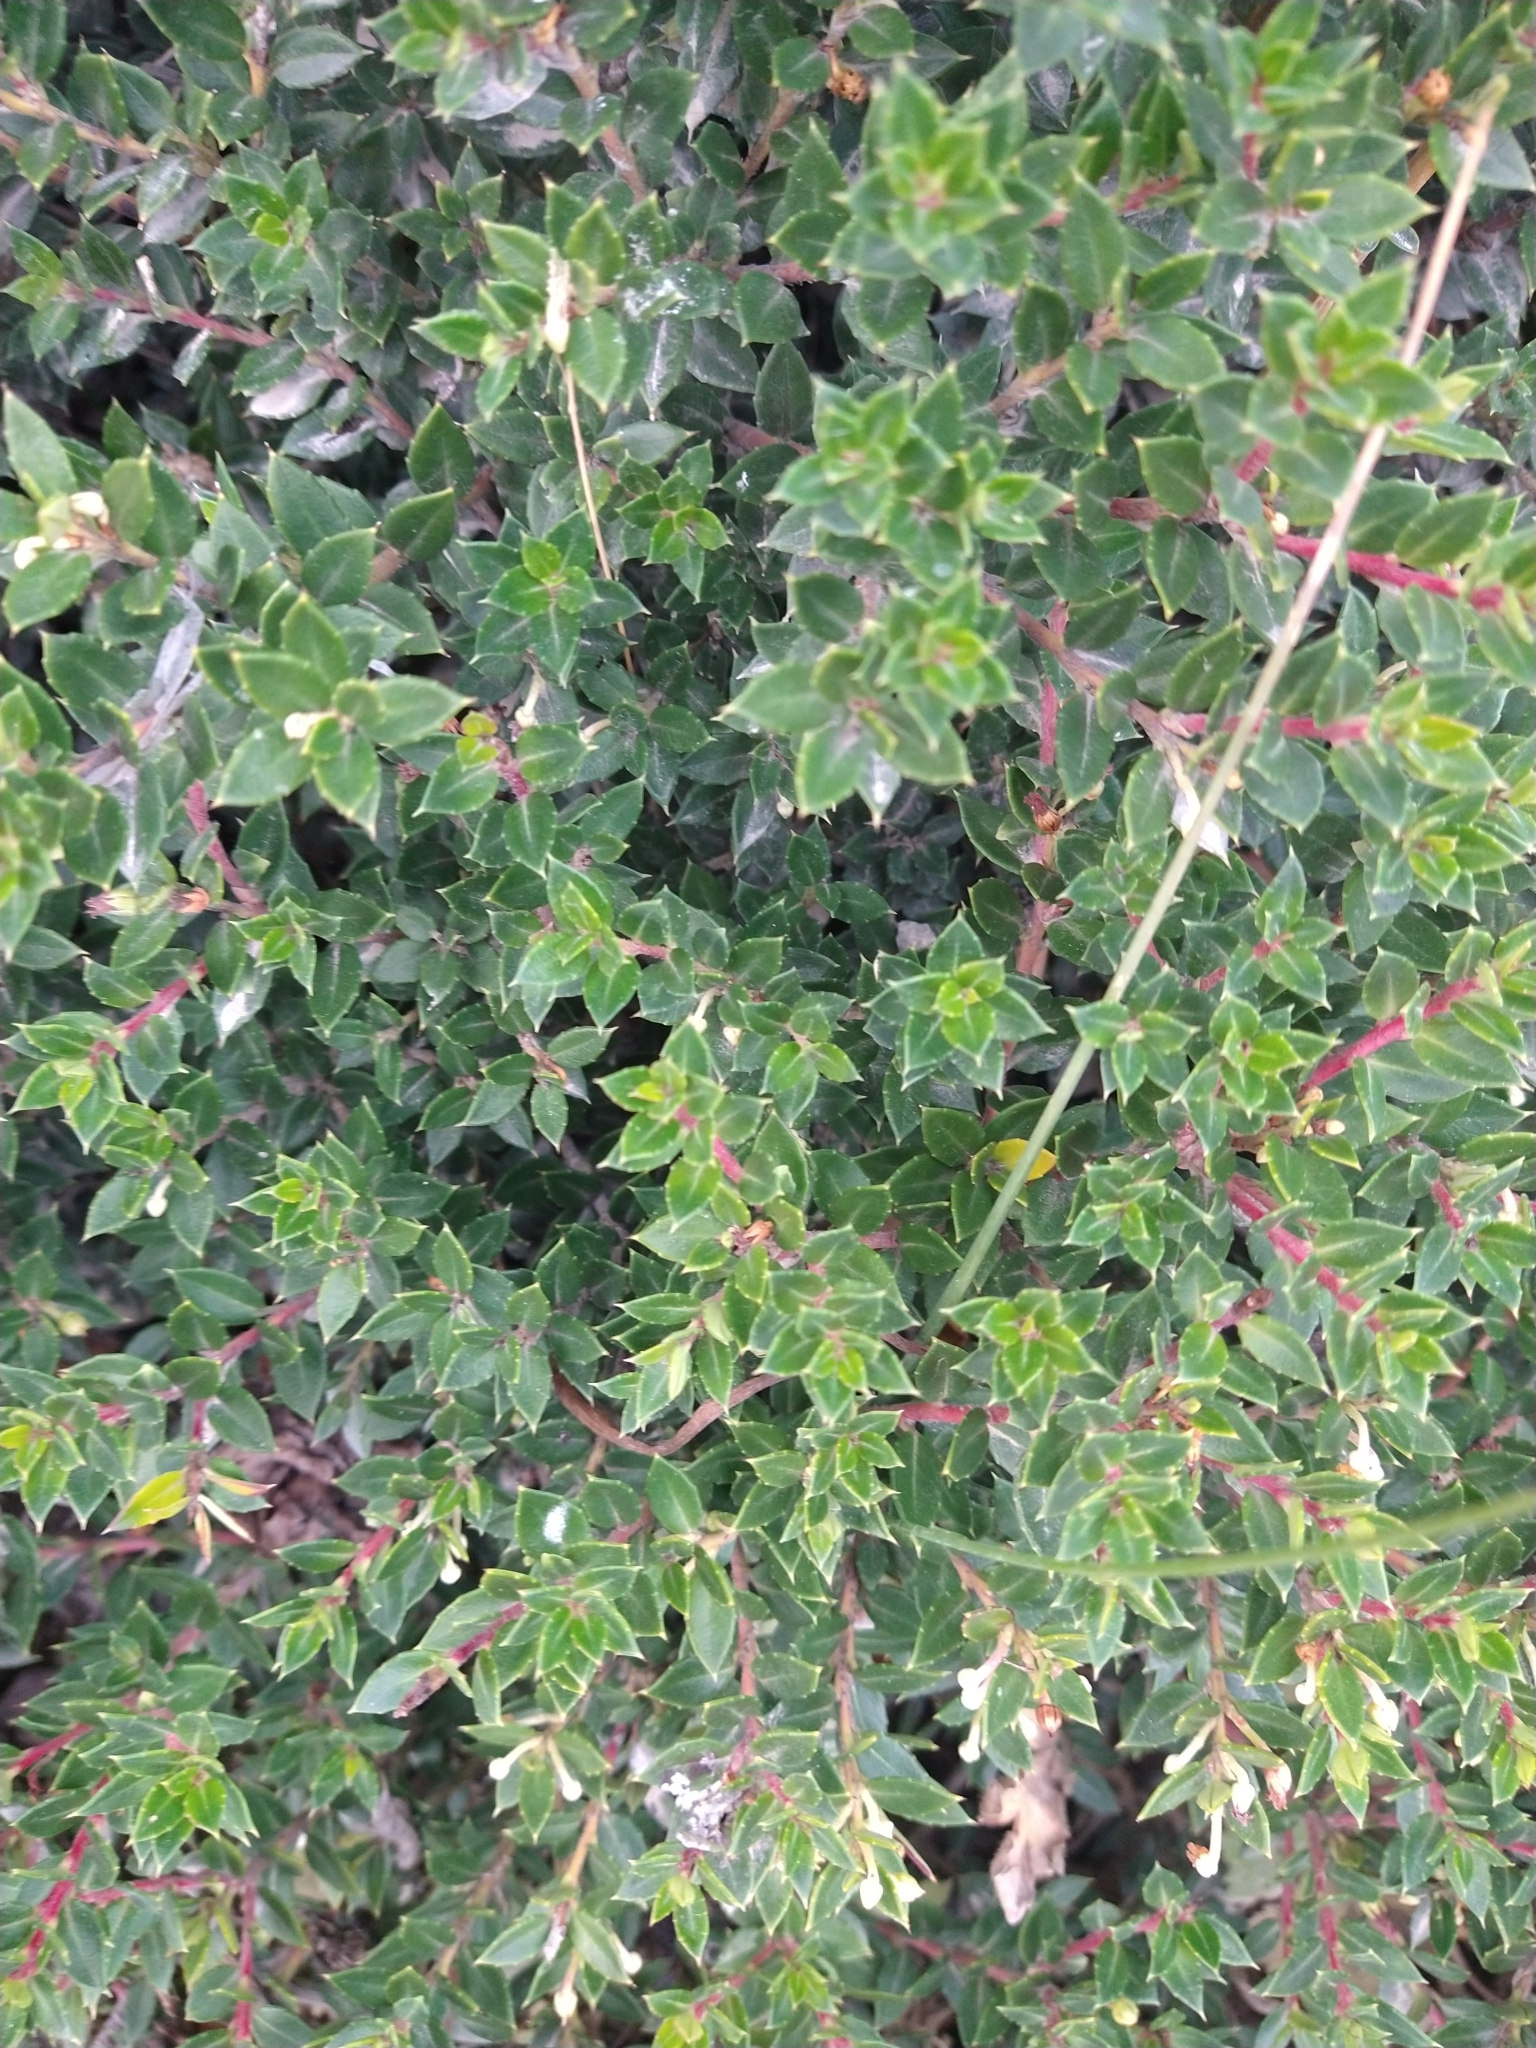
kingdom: Plantae
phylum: Tracheophyta
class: Magnoliopsida
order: Ericales
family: Ericaceae
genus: Gaultheria
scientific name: Gaultheria mucronata
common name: Prickly heath
